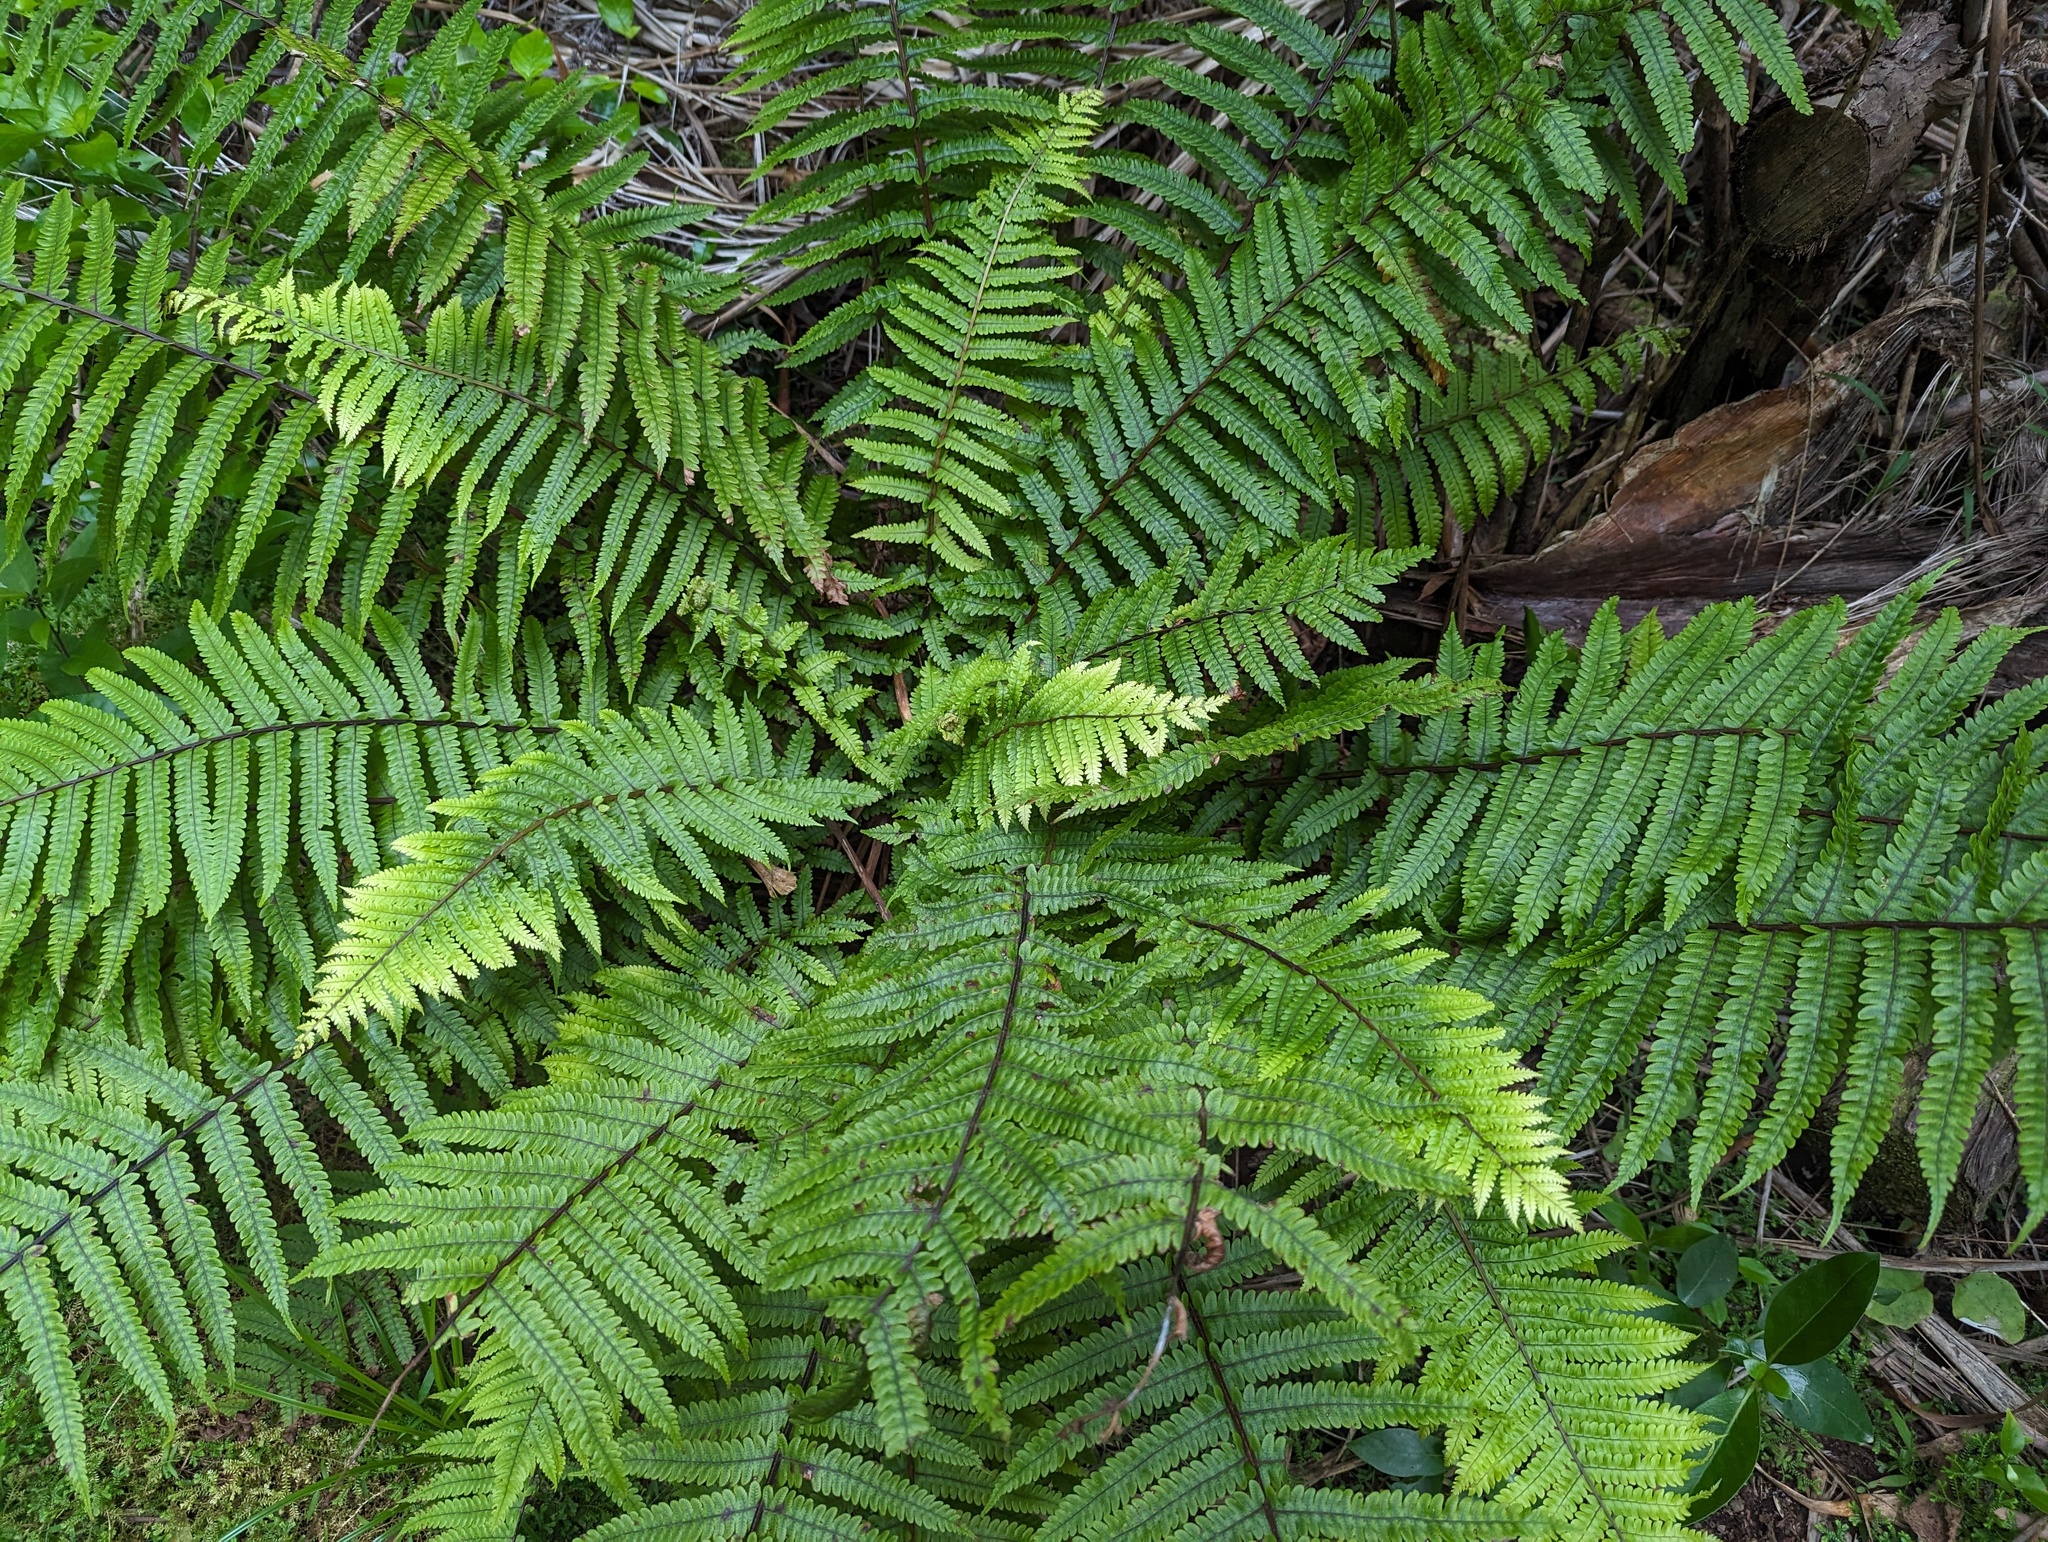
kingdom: Plantae
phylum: Tracheophyta
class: Polypodiopsida
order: Polypodiales
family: Thelypteridaceae
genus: Pakau
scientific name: Pakau pennigera
